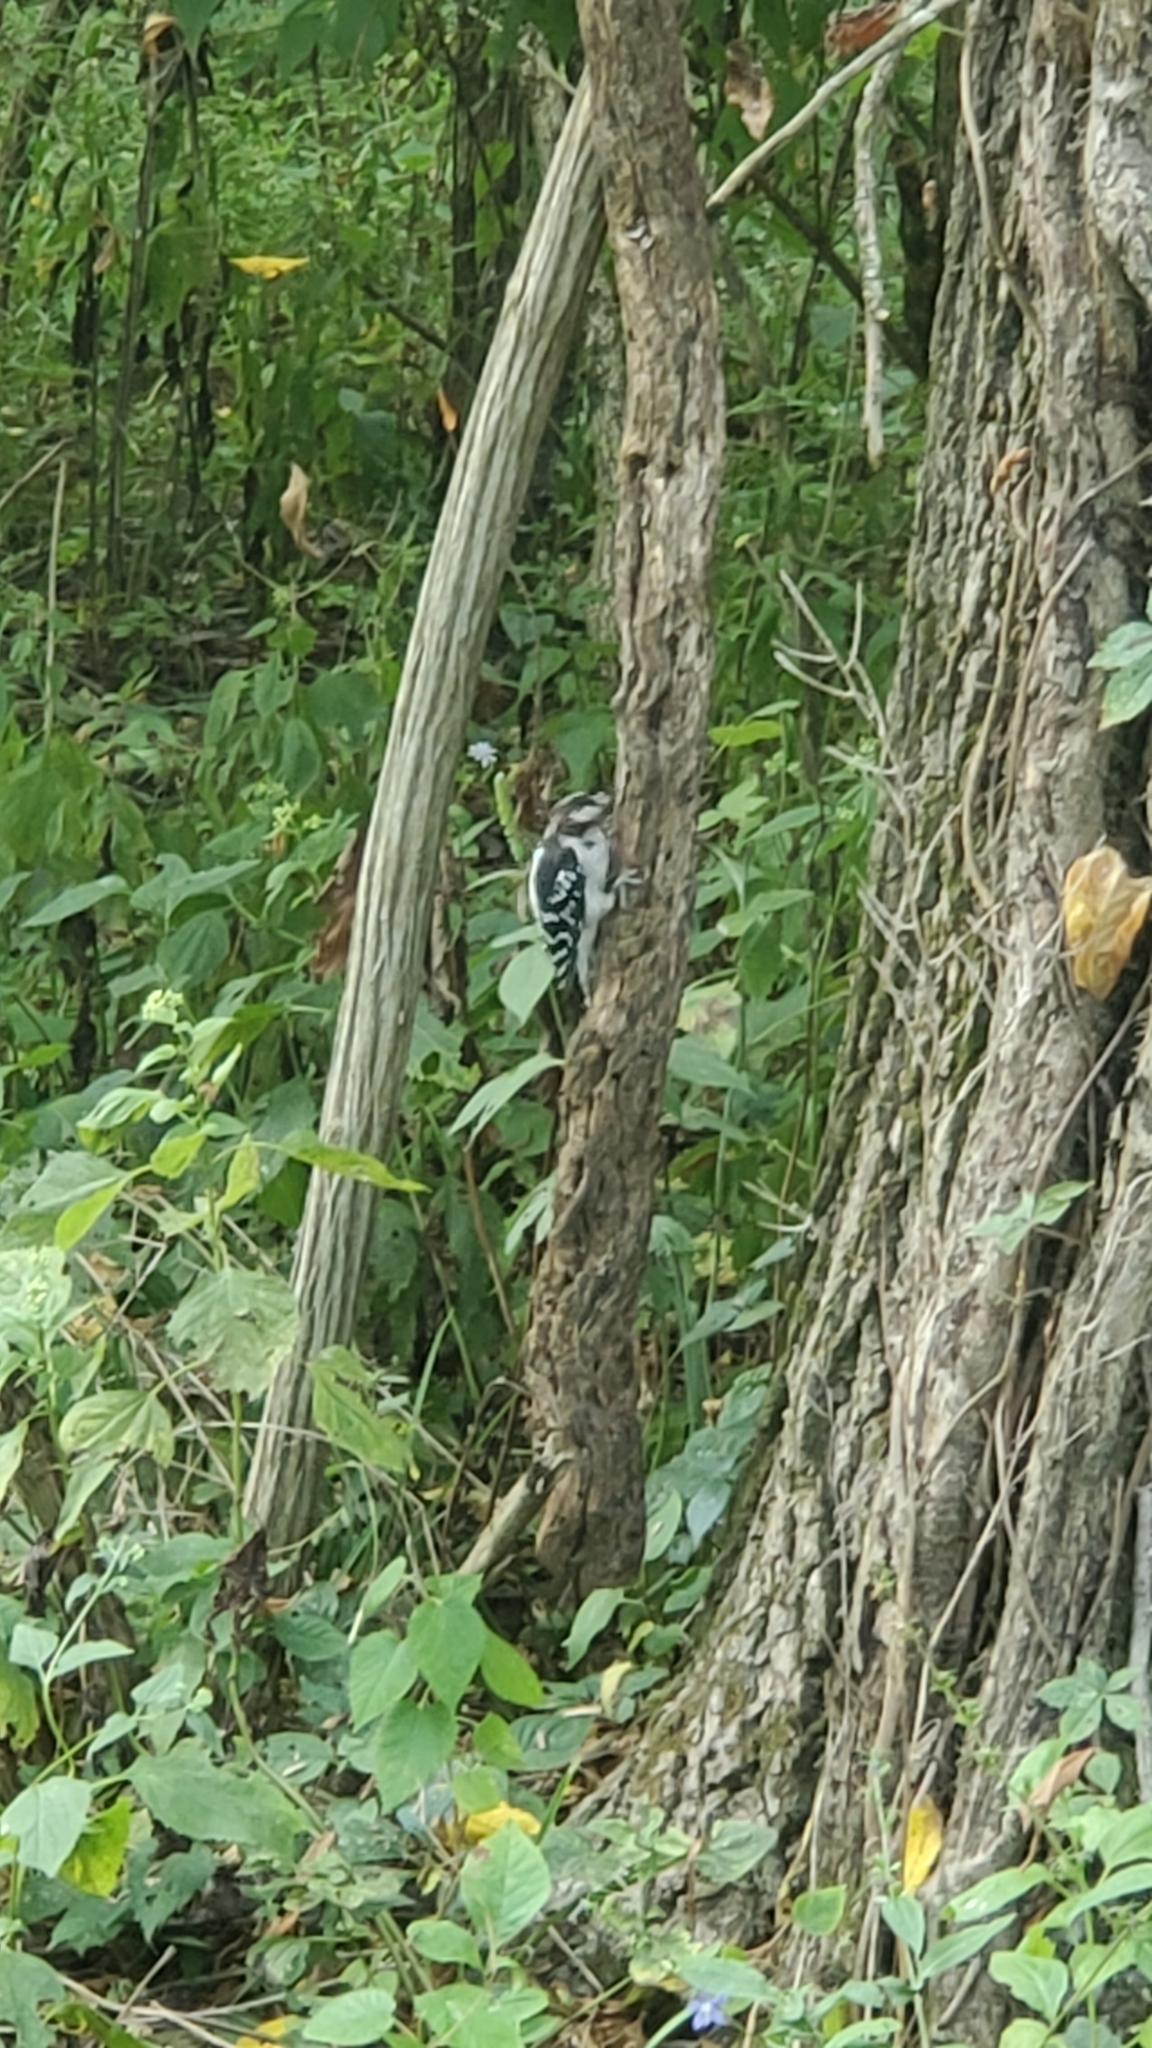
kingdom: Animalia
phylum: Chordata
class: Aves
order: Piciformes
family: Picidae
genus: Dryobates
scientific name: Dryobates pubescens
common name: Downy woodpecker
